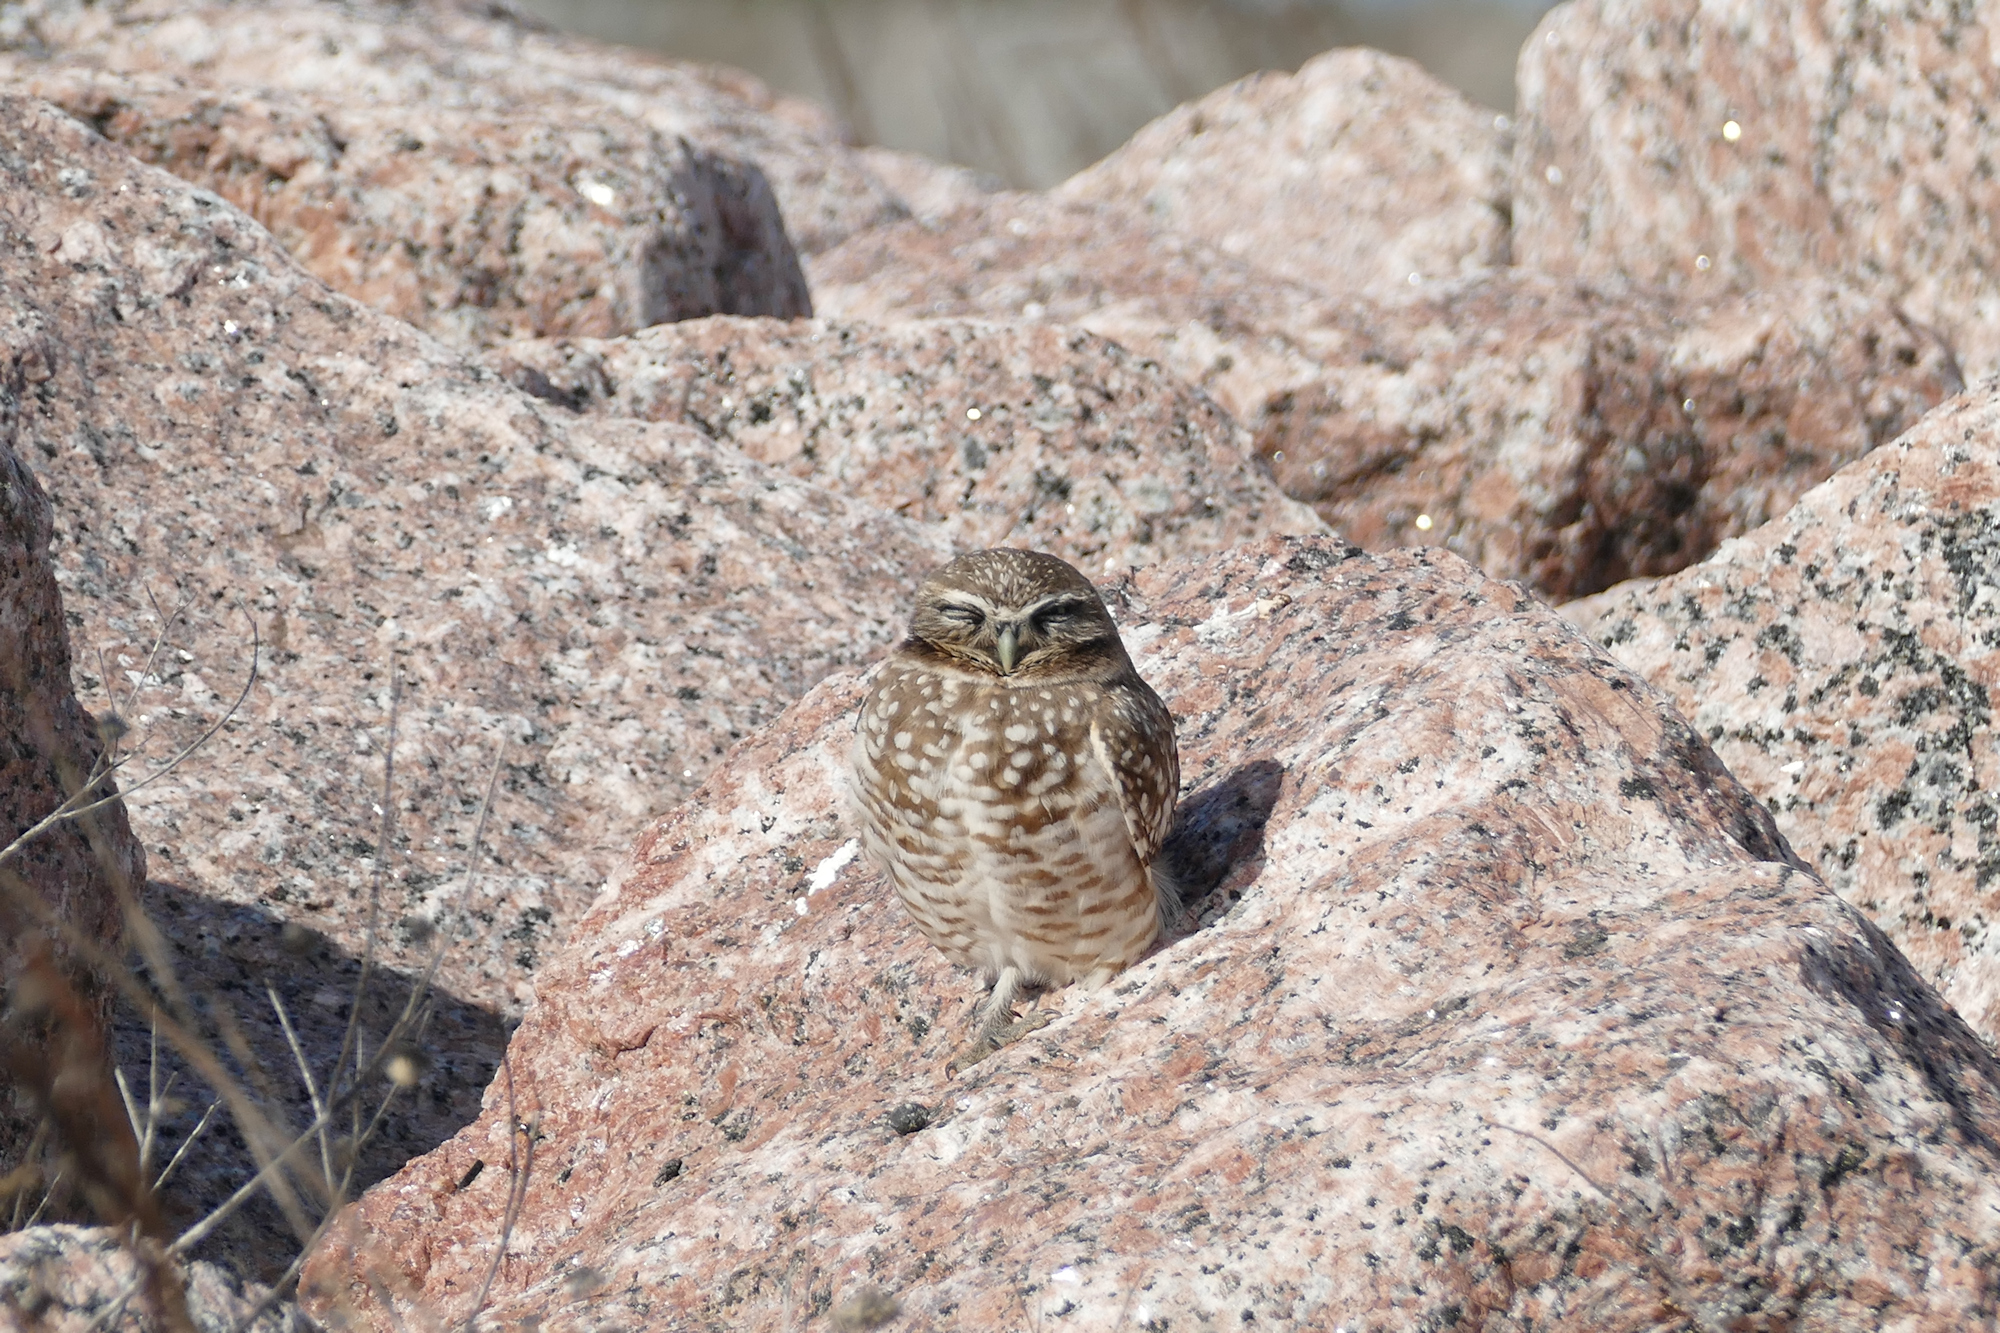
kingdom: Animalia
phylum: Chordata
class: Aves
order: Strigiformes
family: Strigidae
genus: Athene
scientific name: Athene cunicularia
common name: Burrowing owl
